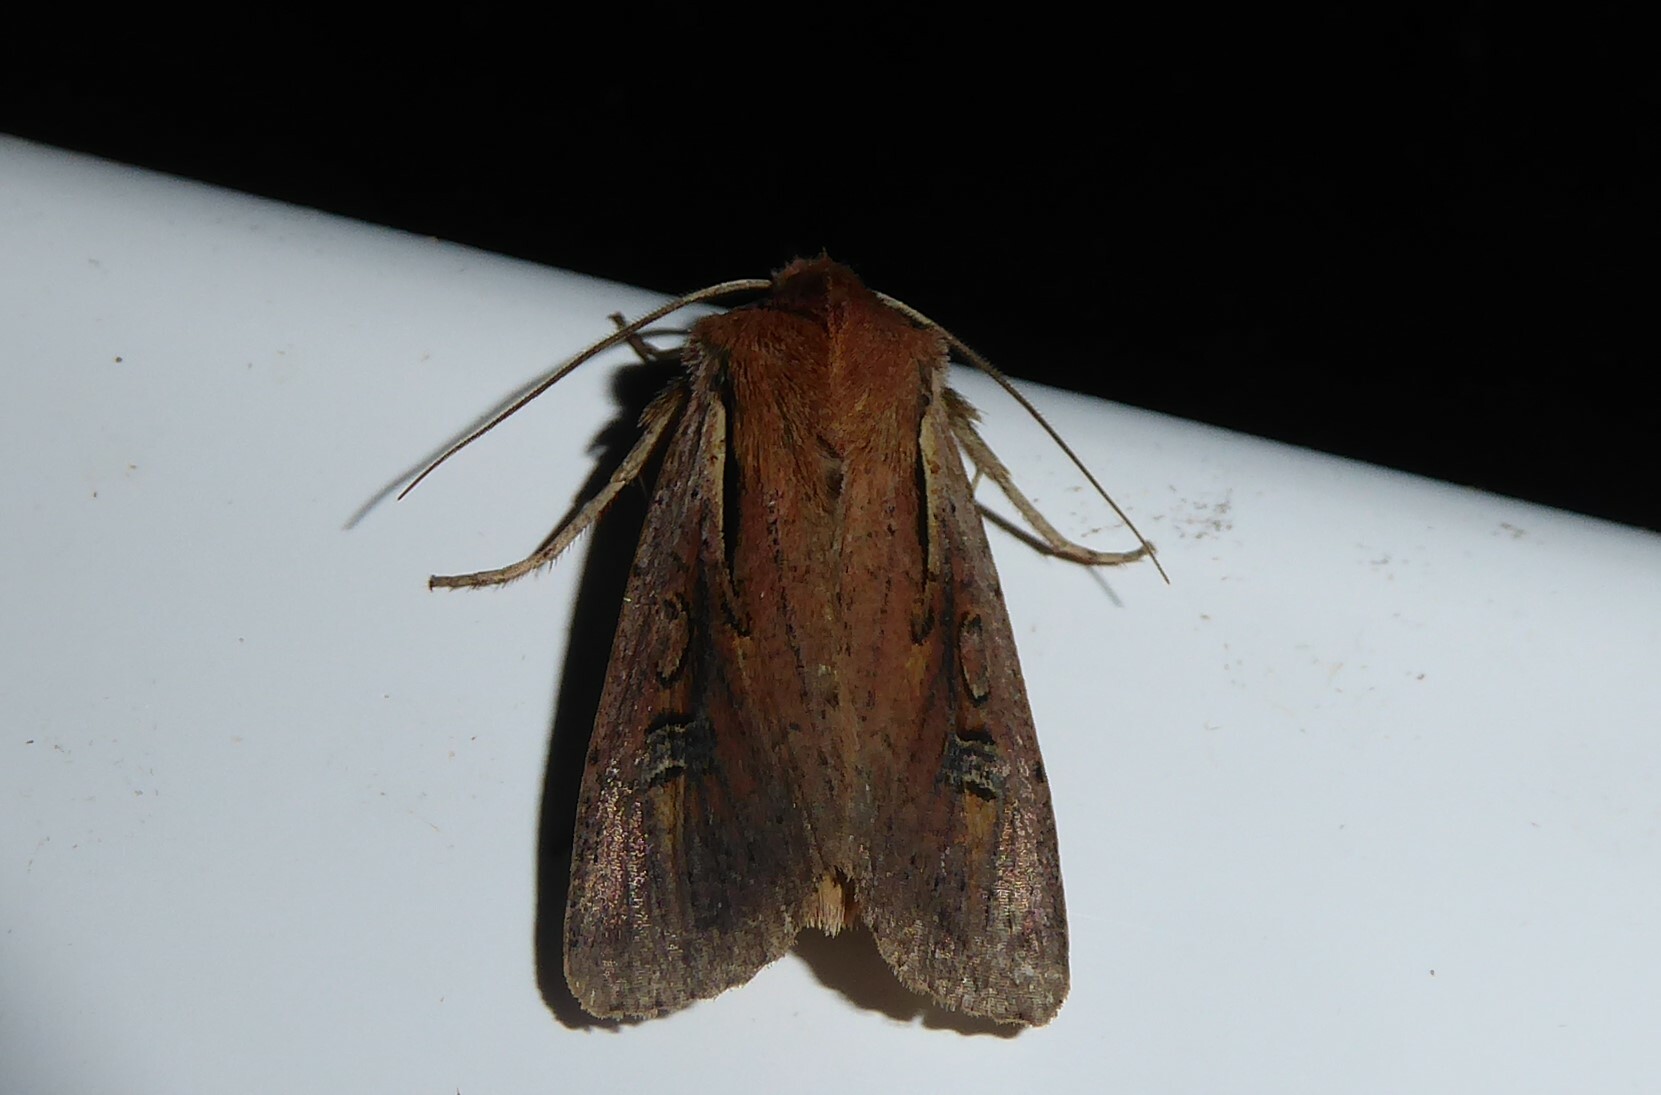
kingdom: Animalia
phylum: Arthropoda
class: Insecta
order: Lepidoptera
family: Noctuidae
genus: Ichneutica
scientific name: Ichneutica atristriga
